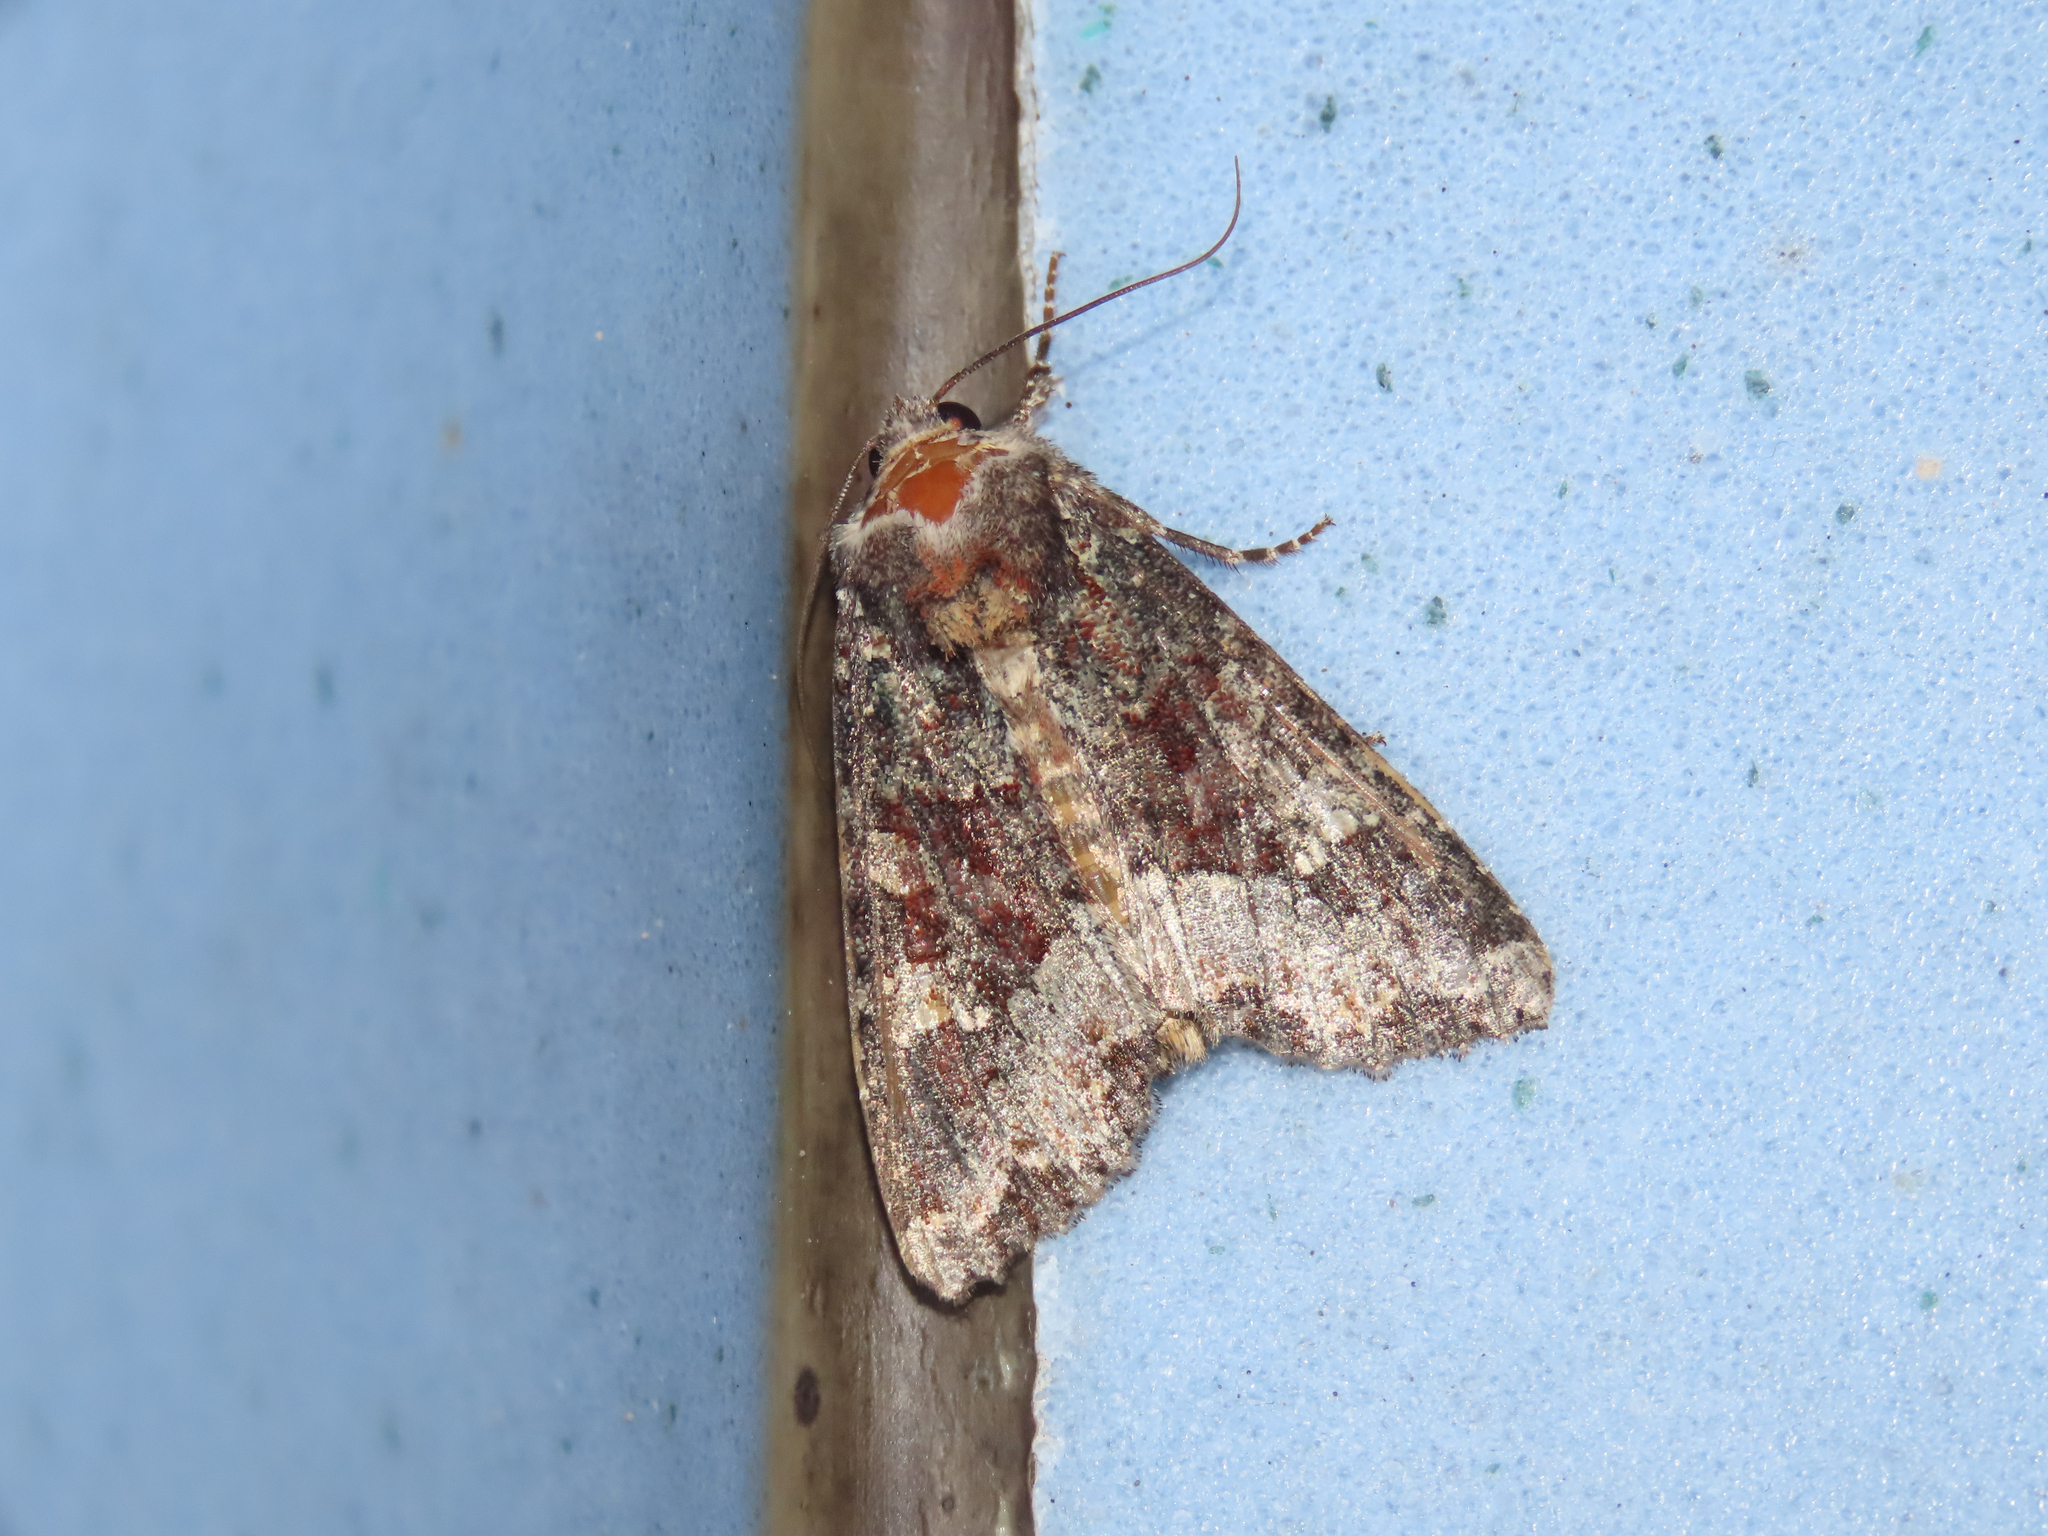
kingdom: Animalia
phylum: Arthropoda
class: Insecta
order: Lepidoptera
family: Noctuidae
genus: Apamea
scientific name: Apamea amputatrix
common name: Yellow-headed cutworm moth
